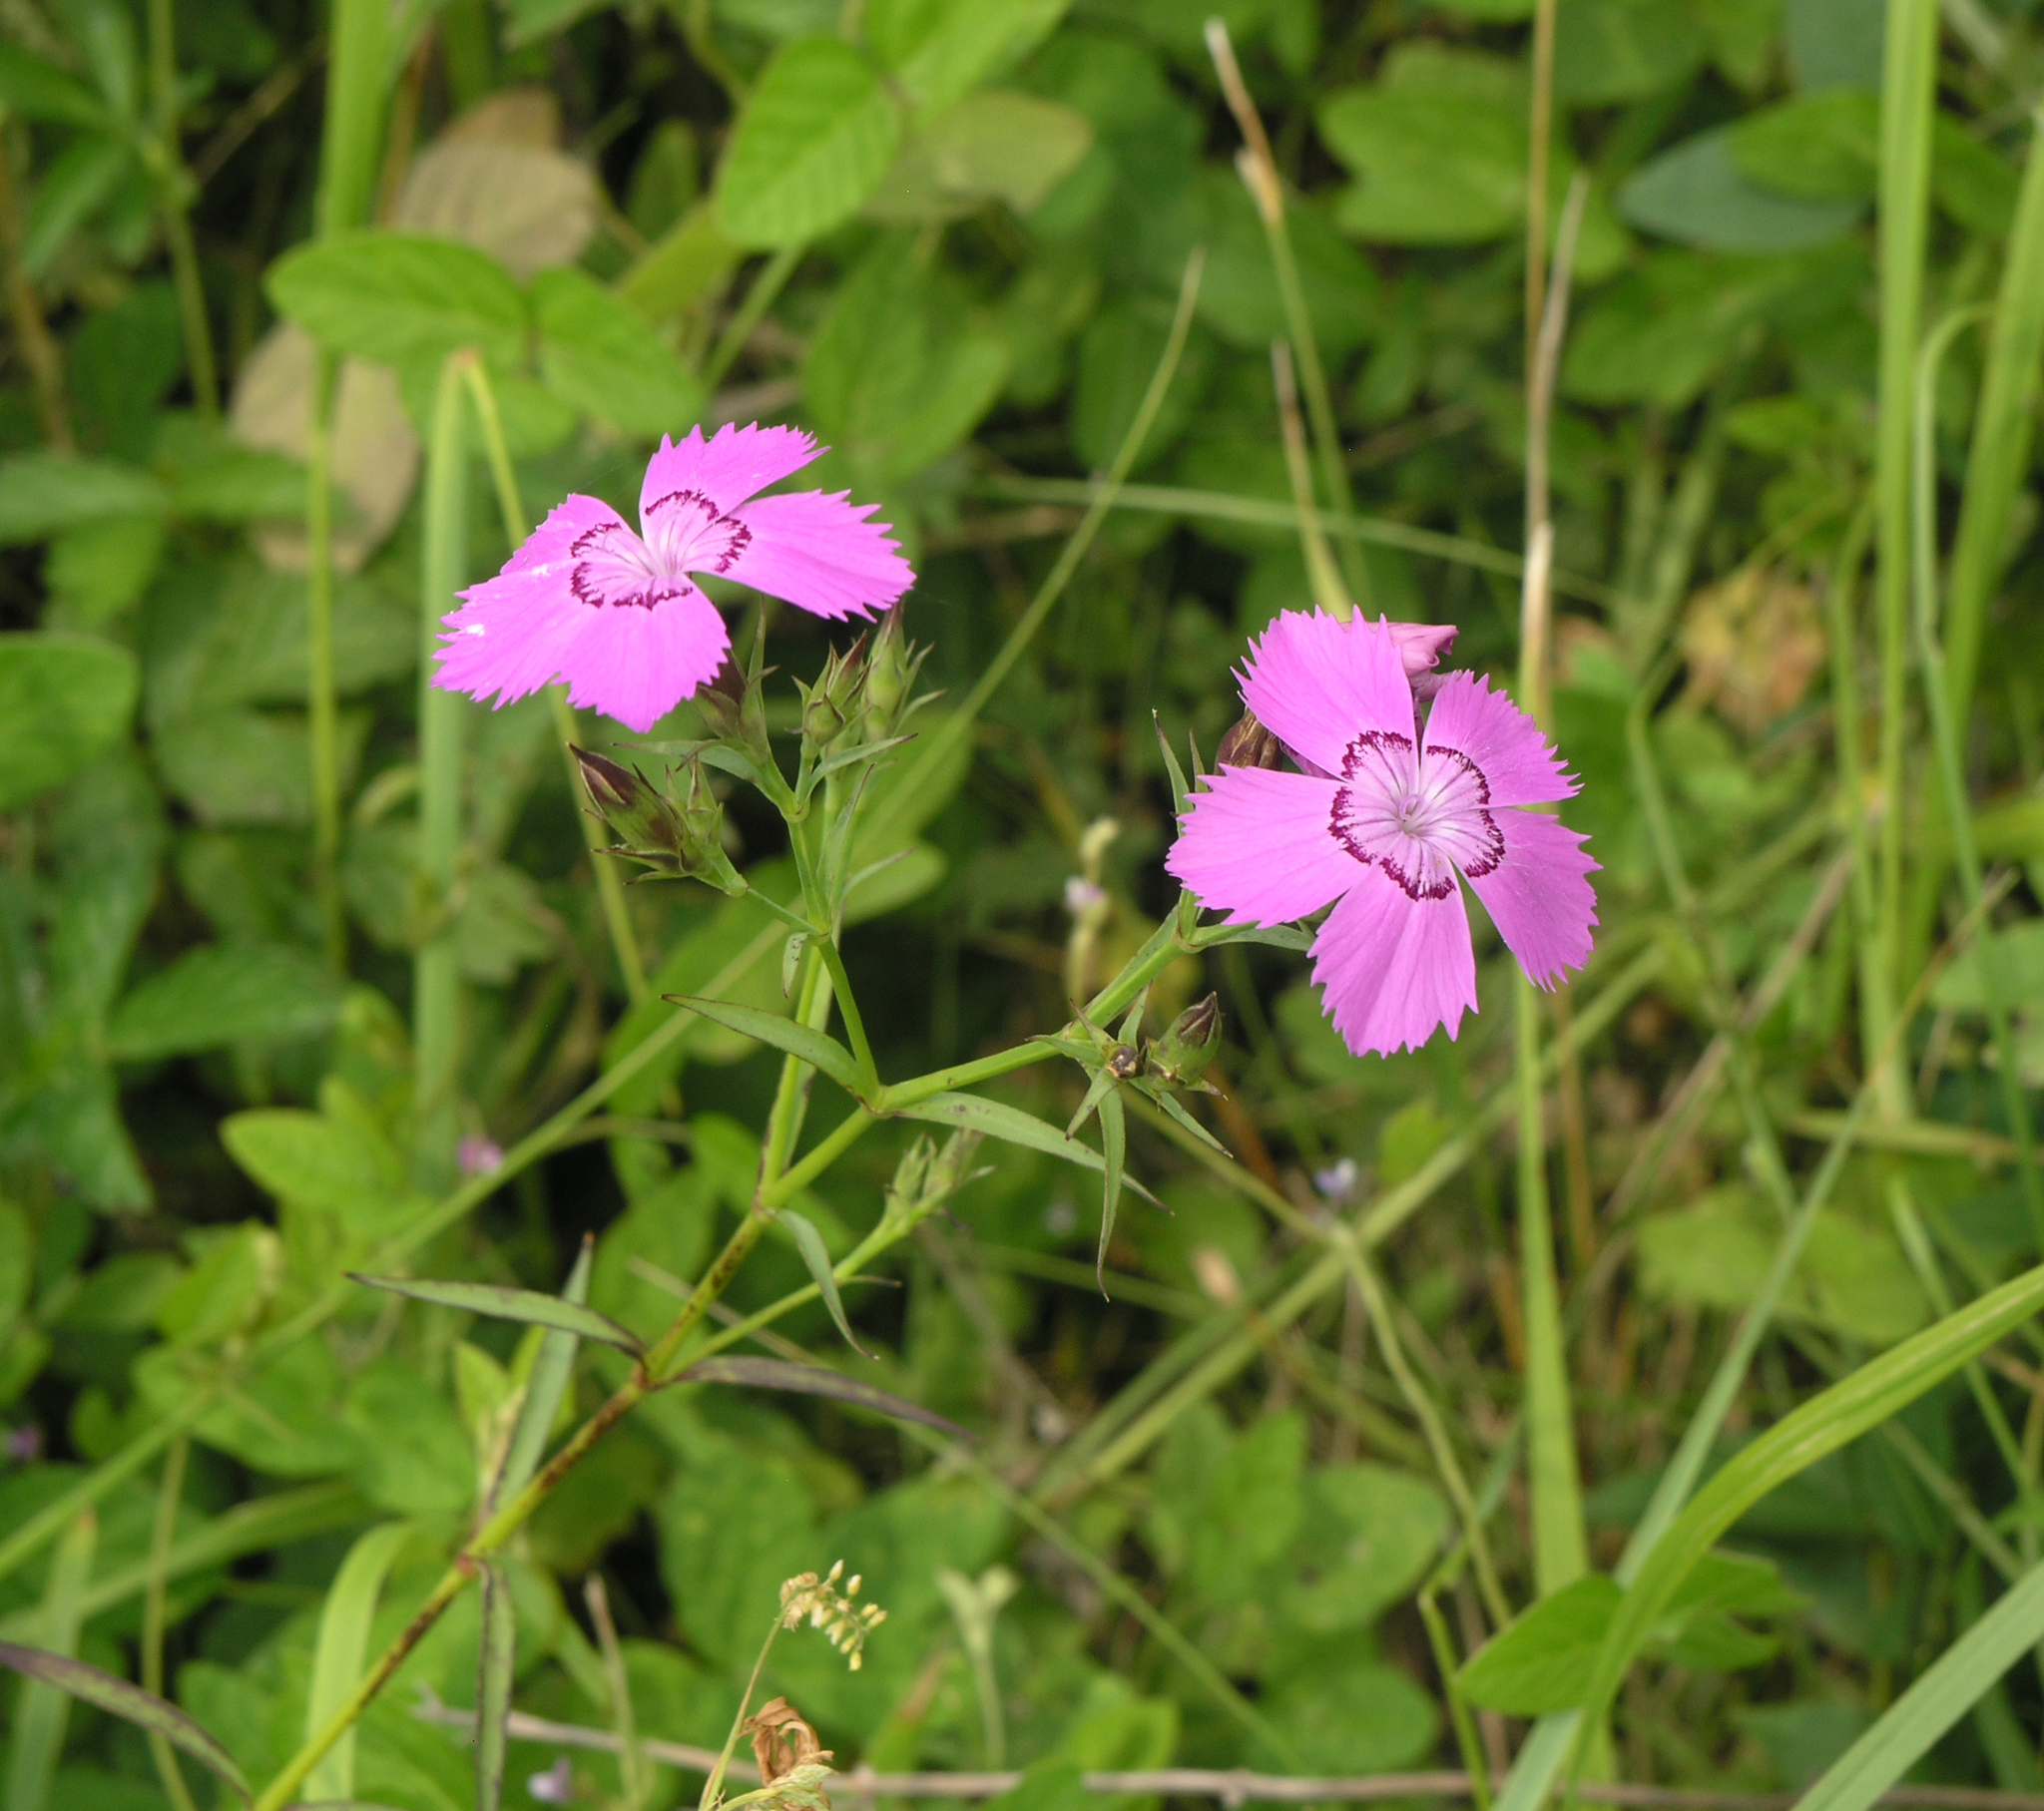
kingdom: Plantae
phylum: Tracheophyta
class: Magnoliopsida
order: Caryophyllales
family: Caryophyllaceae
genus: Dianthus
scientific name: Dianthus chinensis
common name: Rainbow pink
